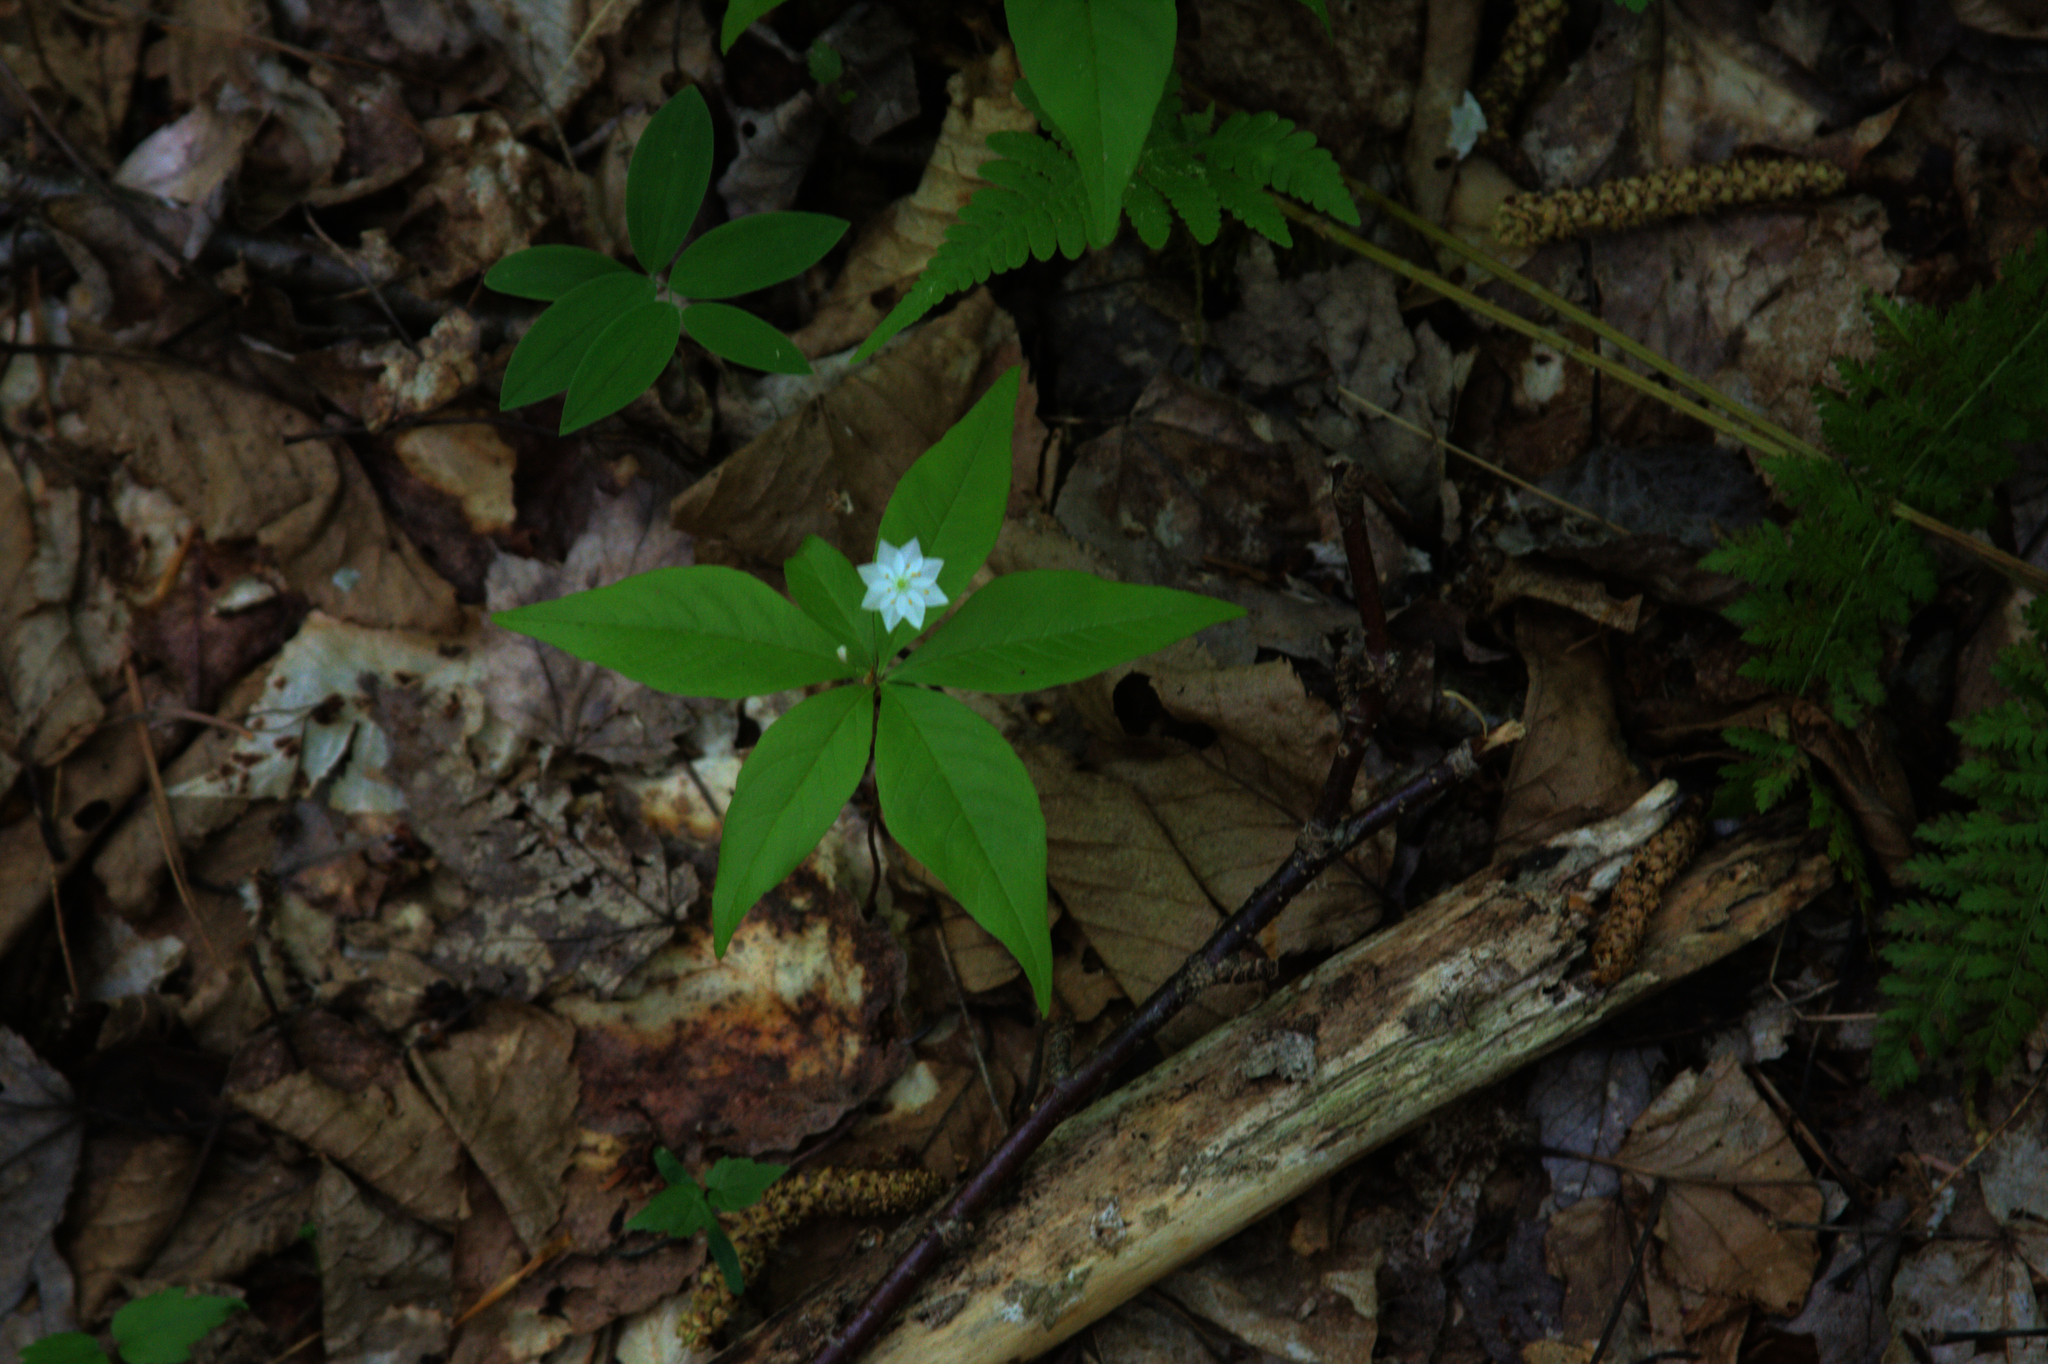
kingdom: Plantae
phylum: Tracheophyta
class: Magnoliopsida
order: Ericales
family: Primulaceae
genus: Lysimachia
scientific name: Lysimachia borealis
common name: American starflower
